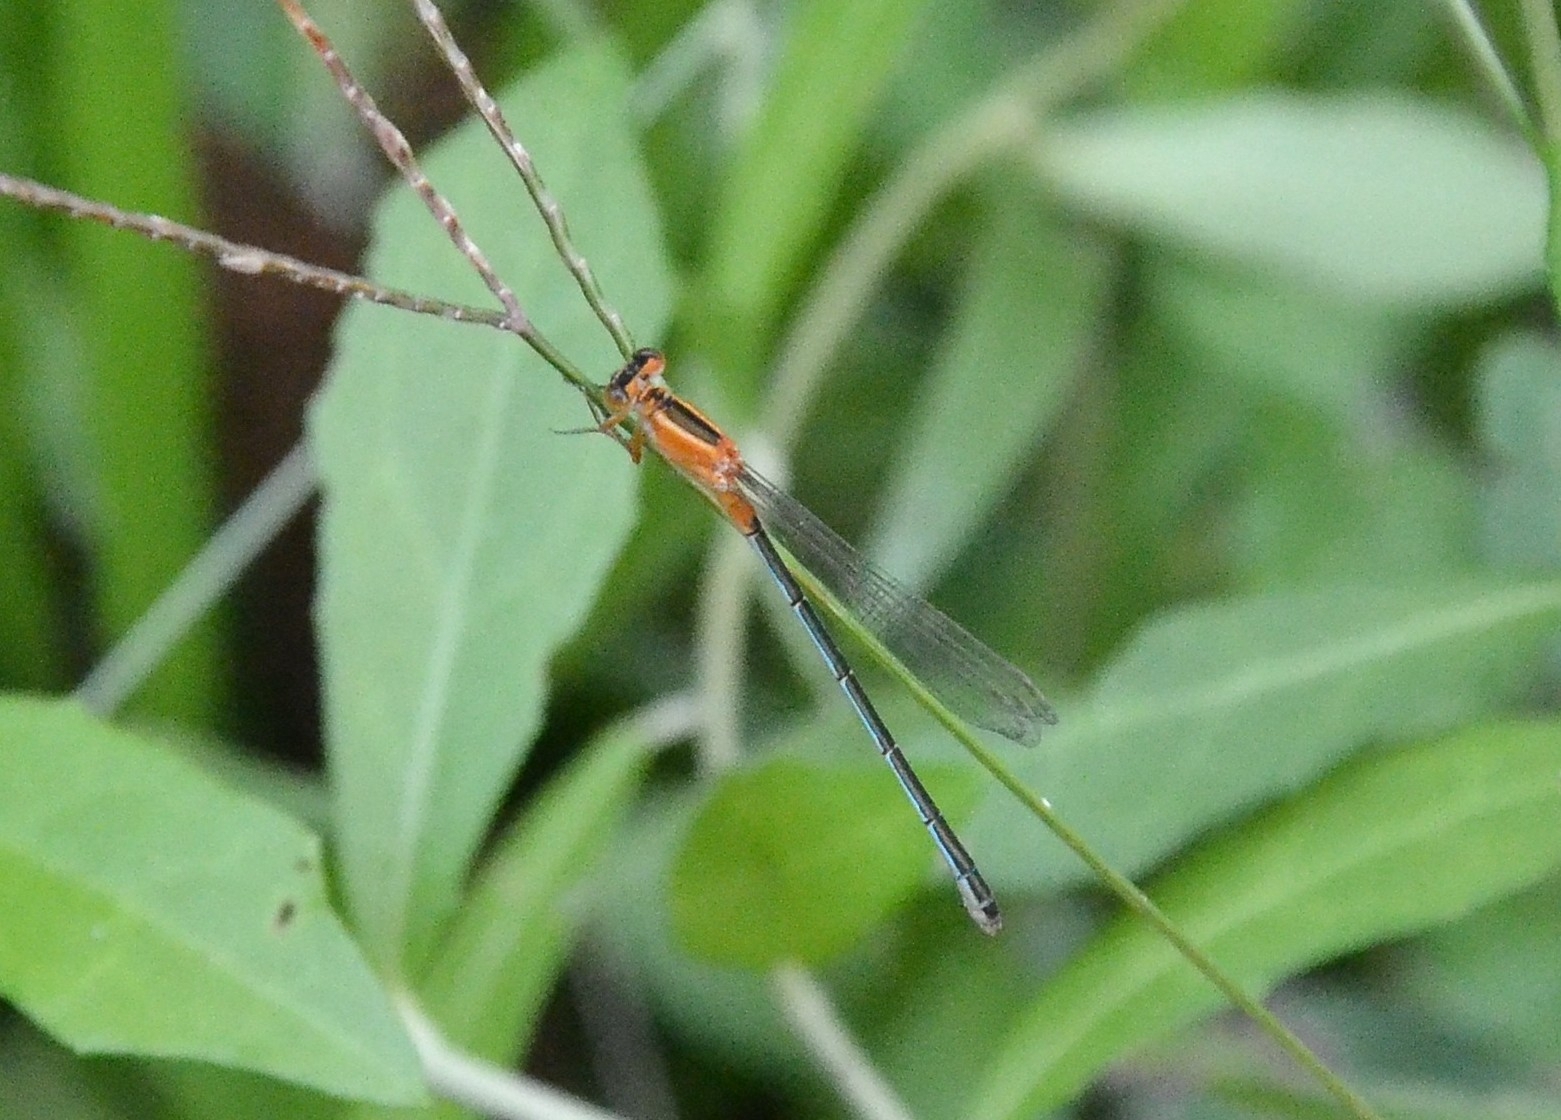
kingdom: Animalia
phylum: Arthropoda
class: Insecta
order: Odonata
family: Coenagrionidae
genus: Ischnura
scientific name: Ischnura senegalensis
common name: Tropical bluetail
